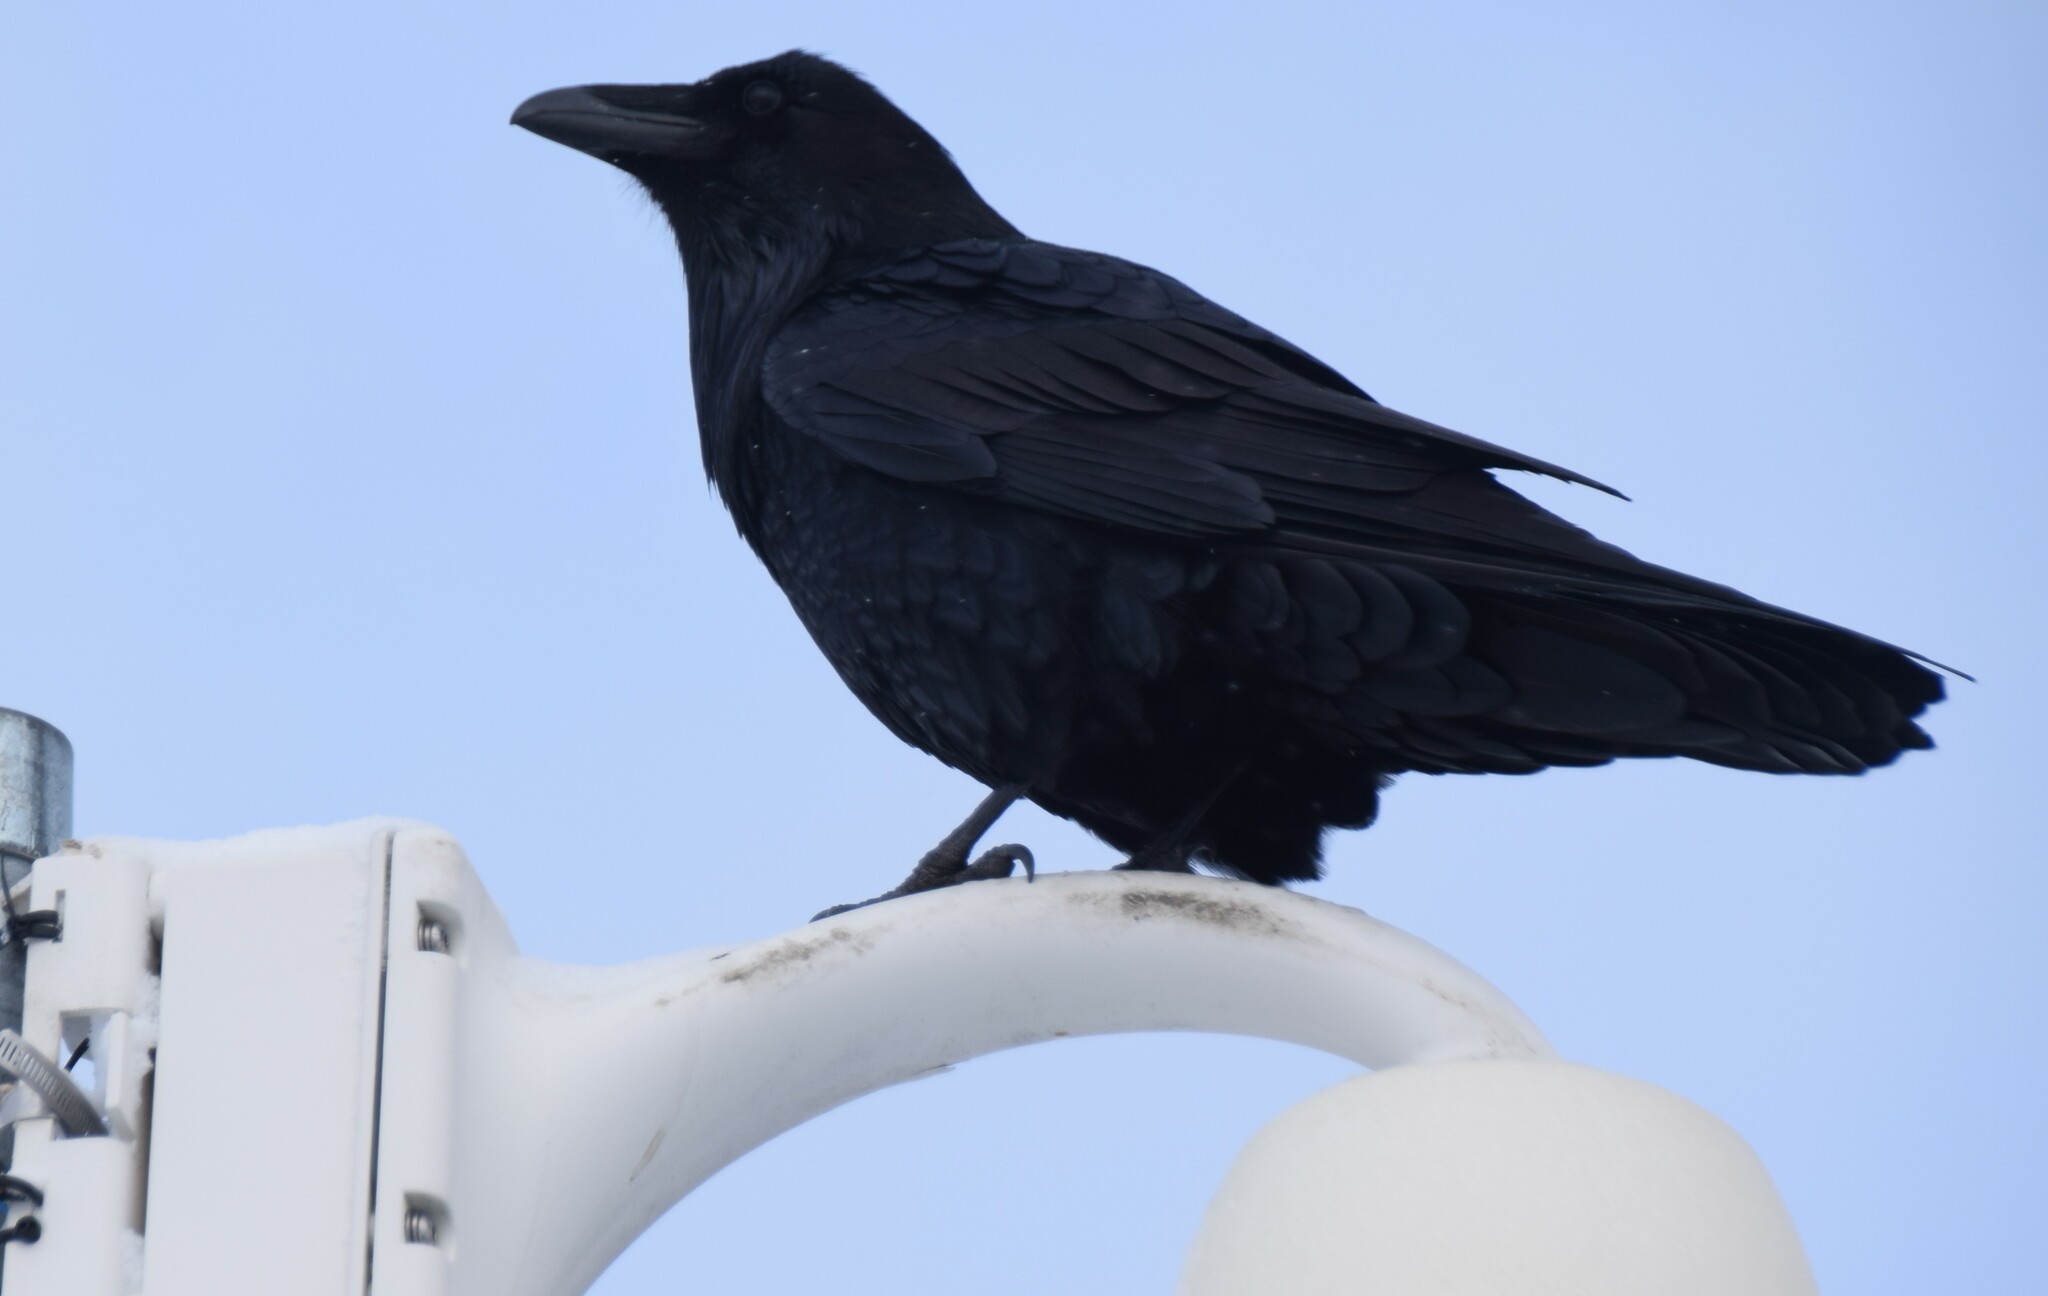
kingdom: Animalia
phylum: Chordata
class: Aves
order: Passeriformes
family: Corvidae
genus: Corvus
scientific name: Corvus corax
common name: Common raven
